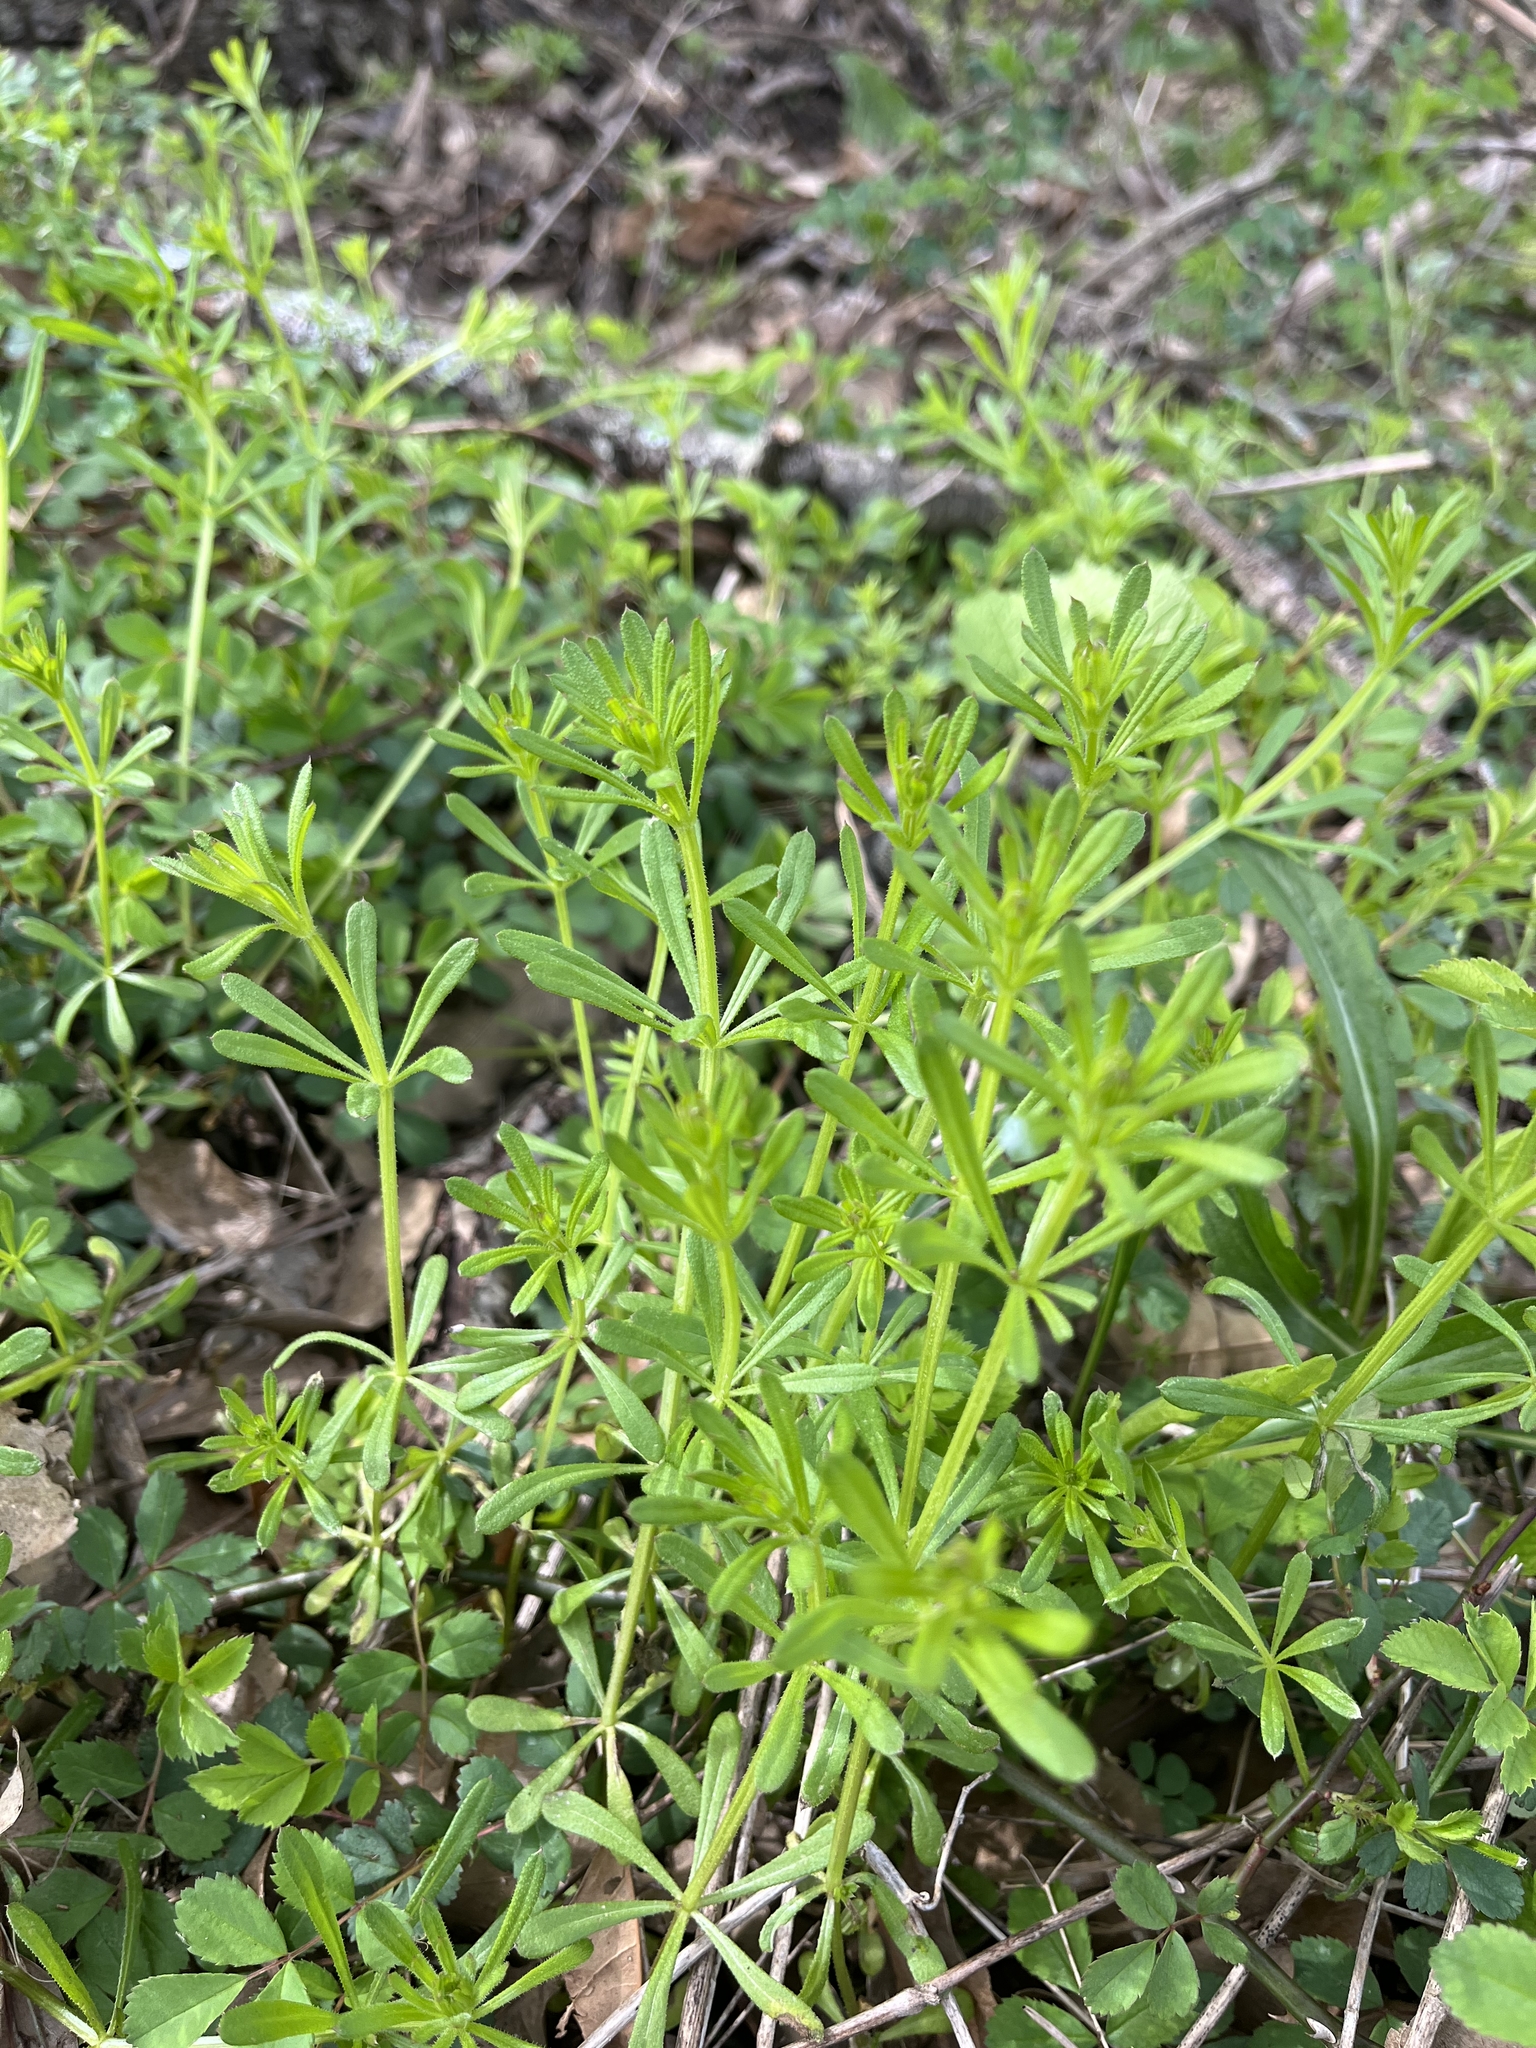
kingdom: Plantae
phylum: Tracheophyta
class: Magnoliopsida
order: Gentianales
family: Rubiaceae
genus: Galium
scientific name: Galium aparine
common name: Cleavers
